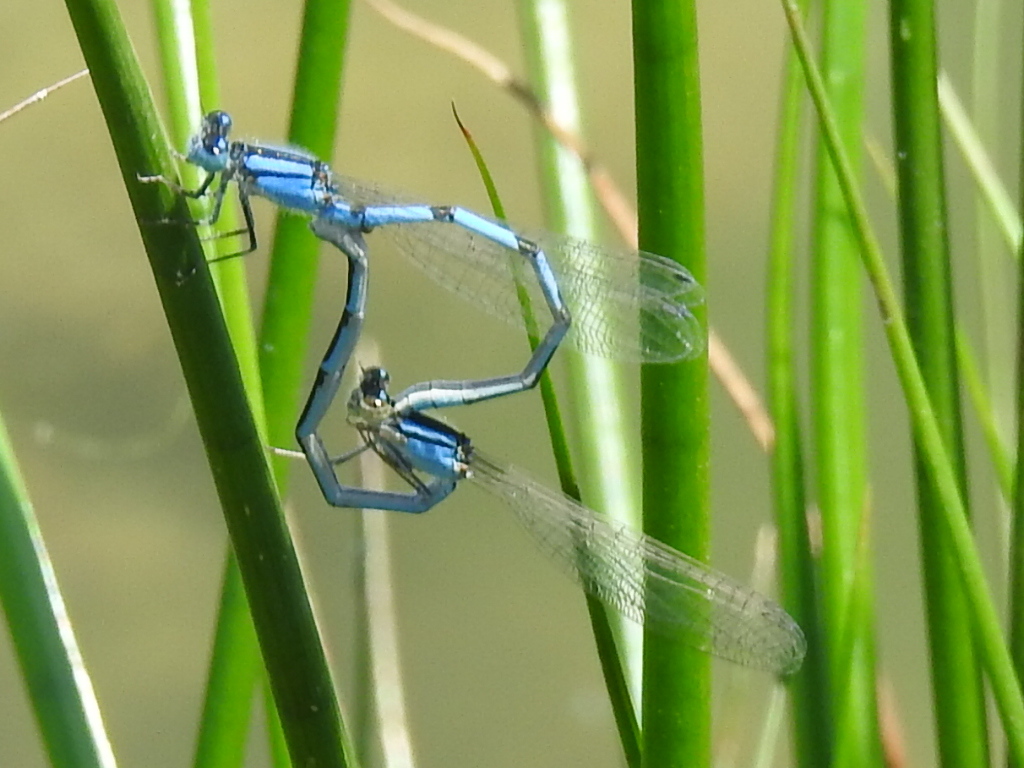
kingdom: Animalia
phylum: Arthropoda
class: Insecta
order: Odonata
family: Coenagrionidae
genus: Enallagma
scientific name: Enallagma civile
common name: Damselfly
